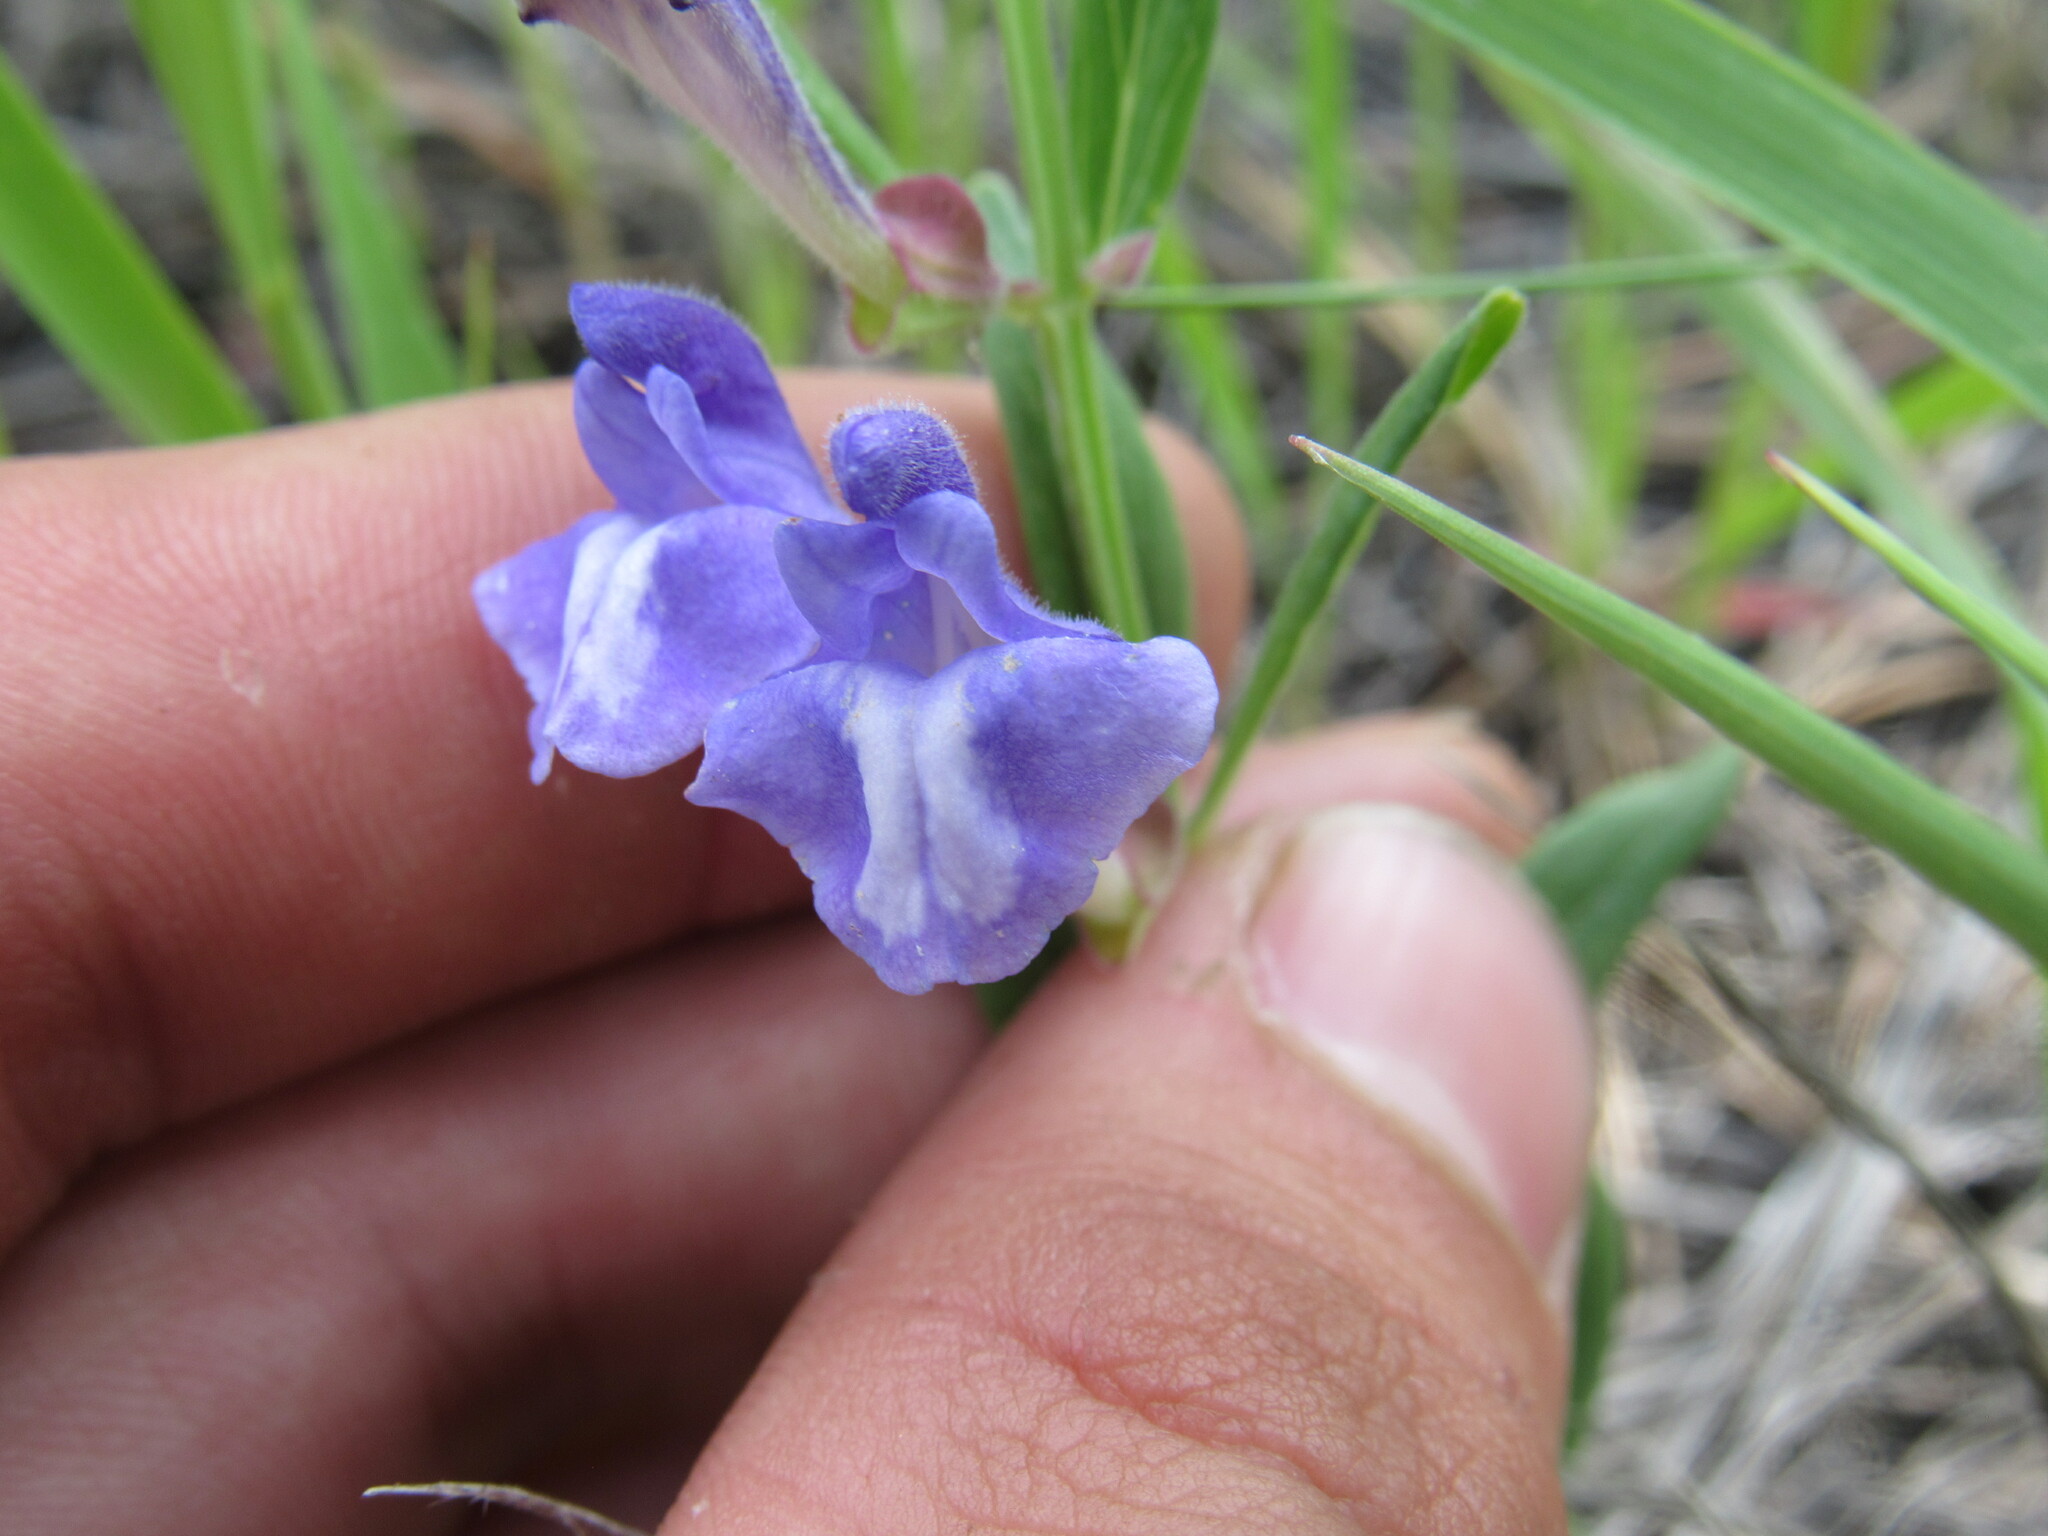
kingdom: Plantae
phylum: Tracheophyta
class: Magnoliopsida
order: Lamiales
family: Lamiaceae
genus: Scutellaria
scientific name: Scutellaria brittonii
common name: Britton's skullcap
